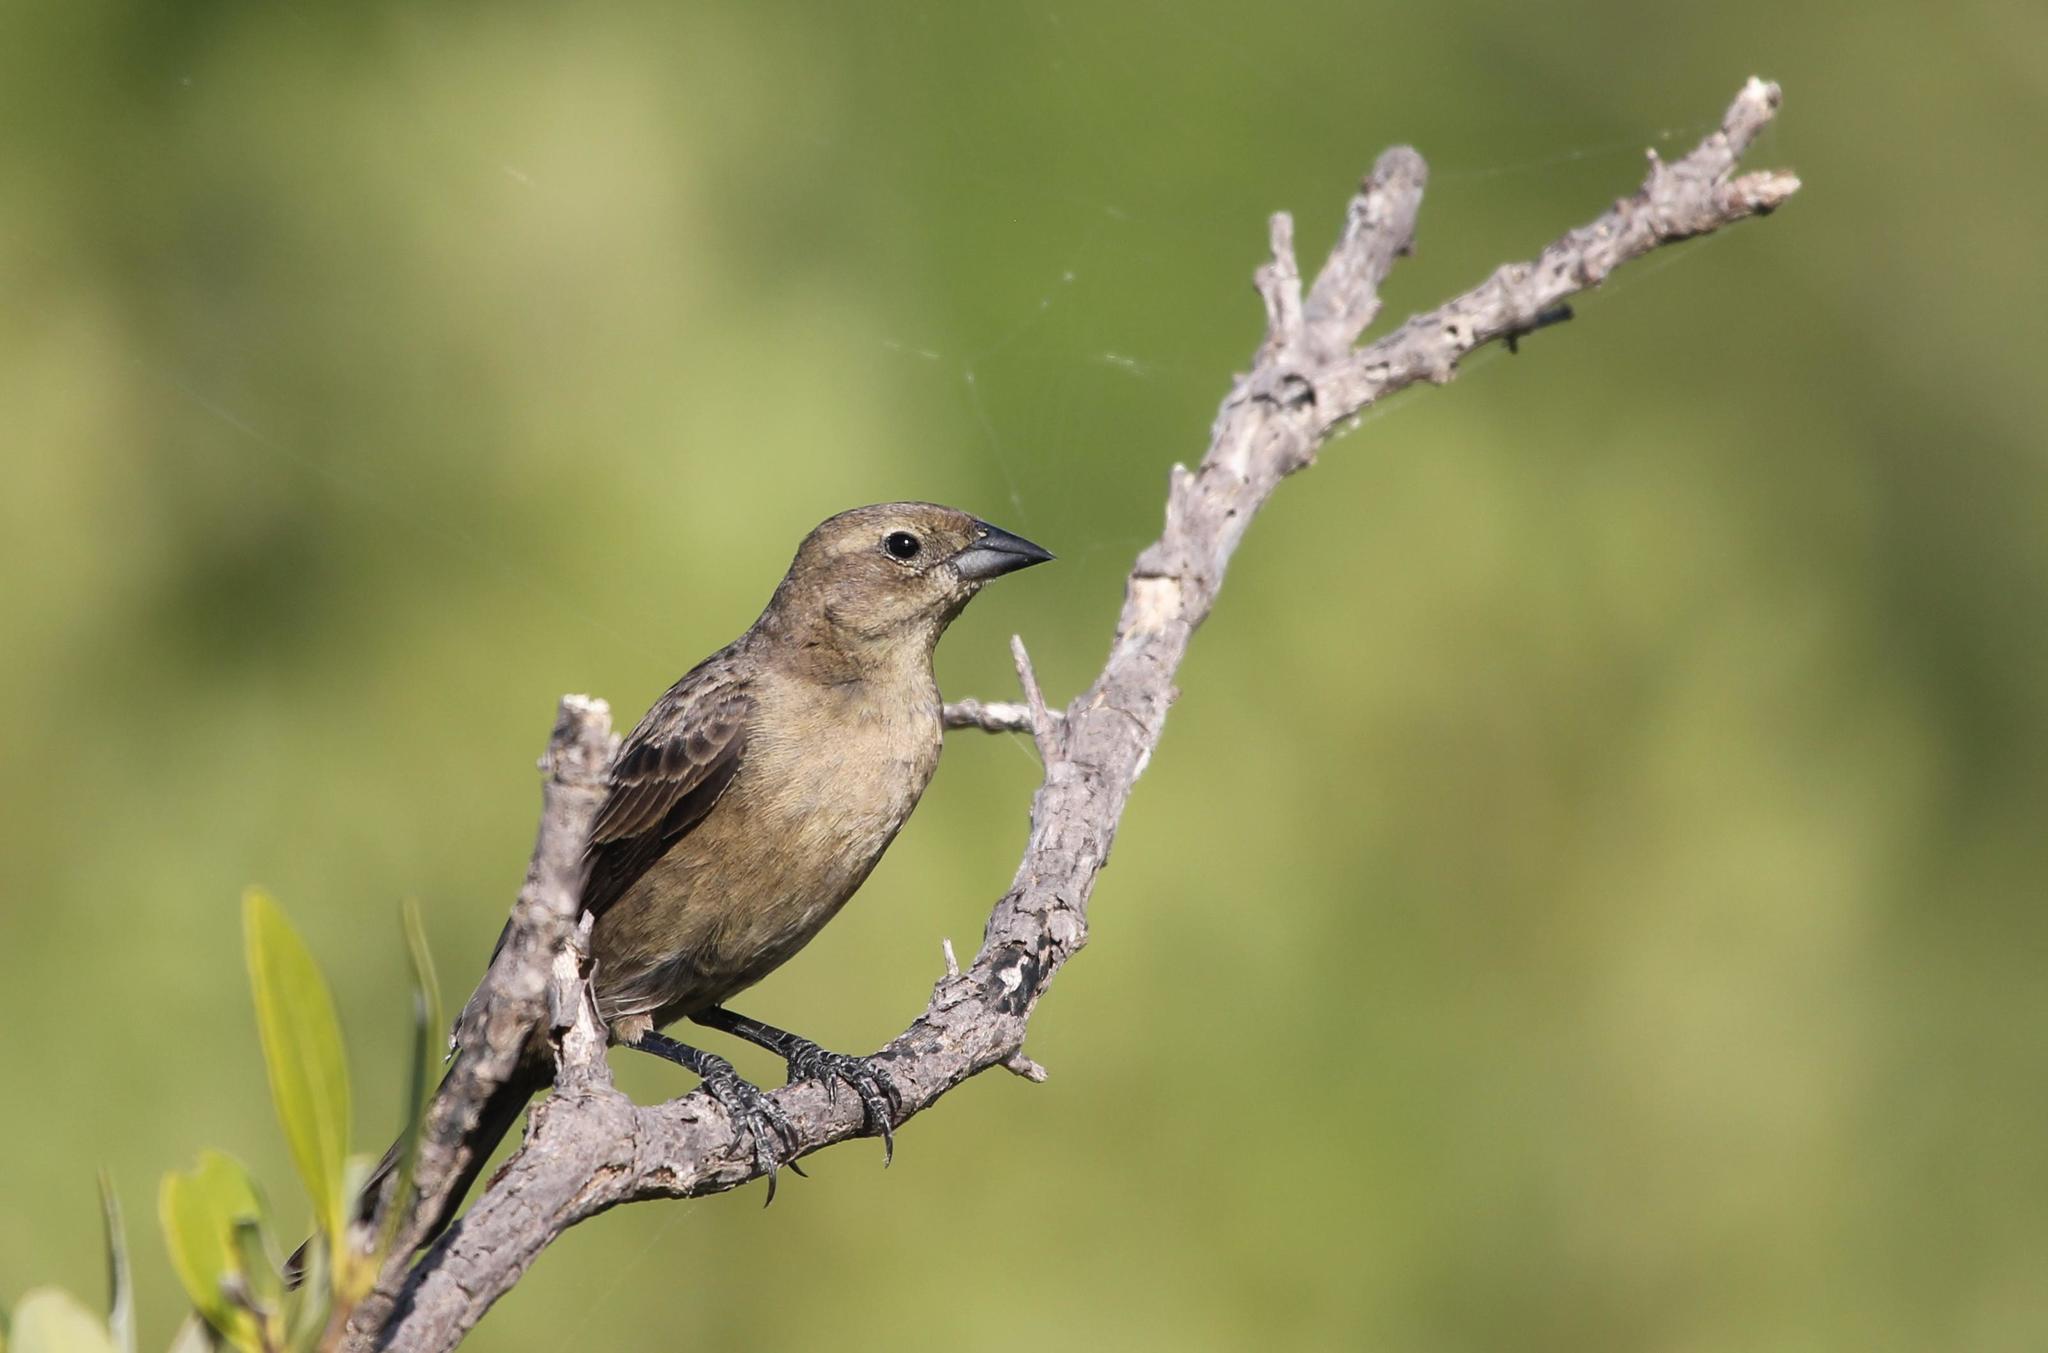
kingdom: Animalia
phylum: Chordata
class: Aves
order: Passeriformes
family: Icteridae
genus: Molothrus
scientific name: Molothrus bonariensis
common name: Shiny cowbird
